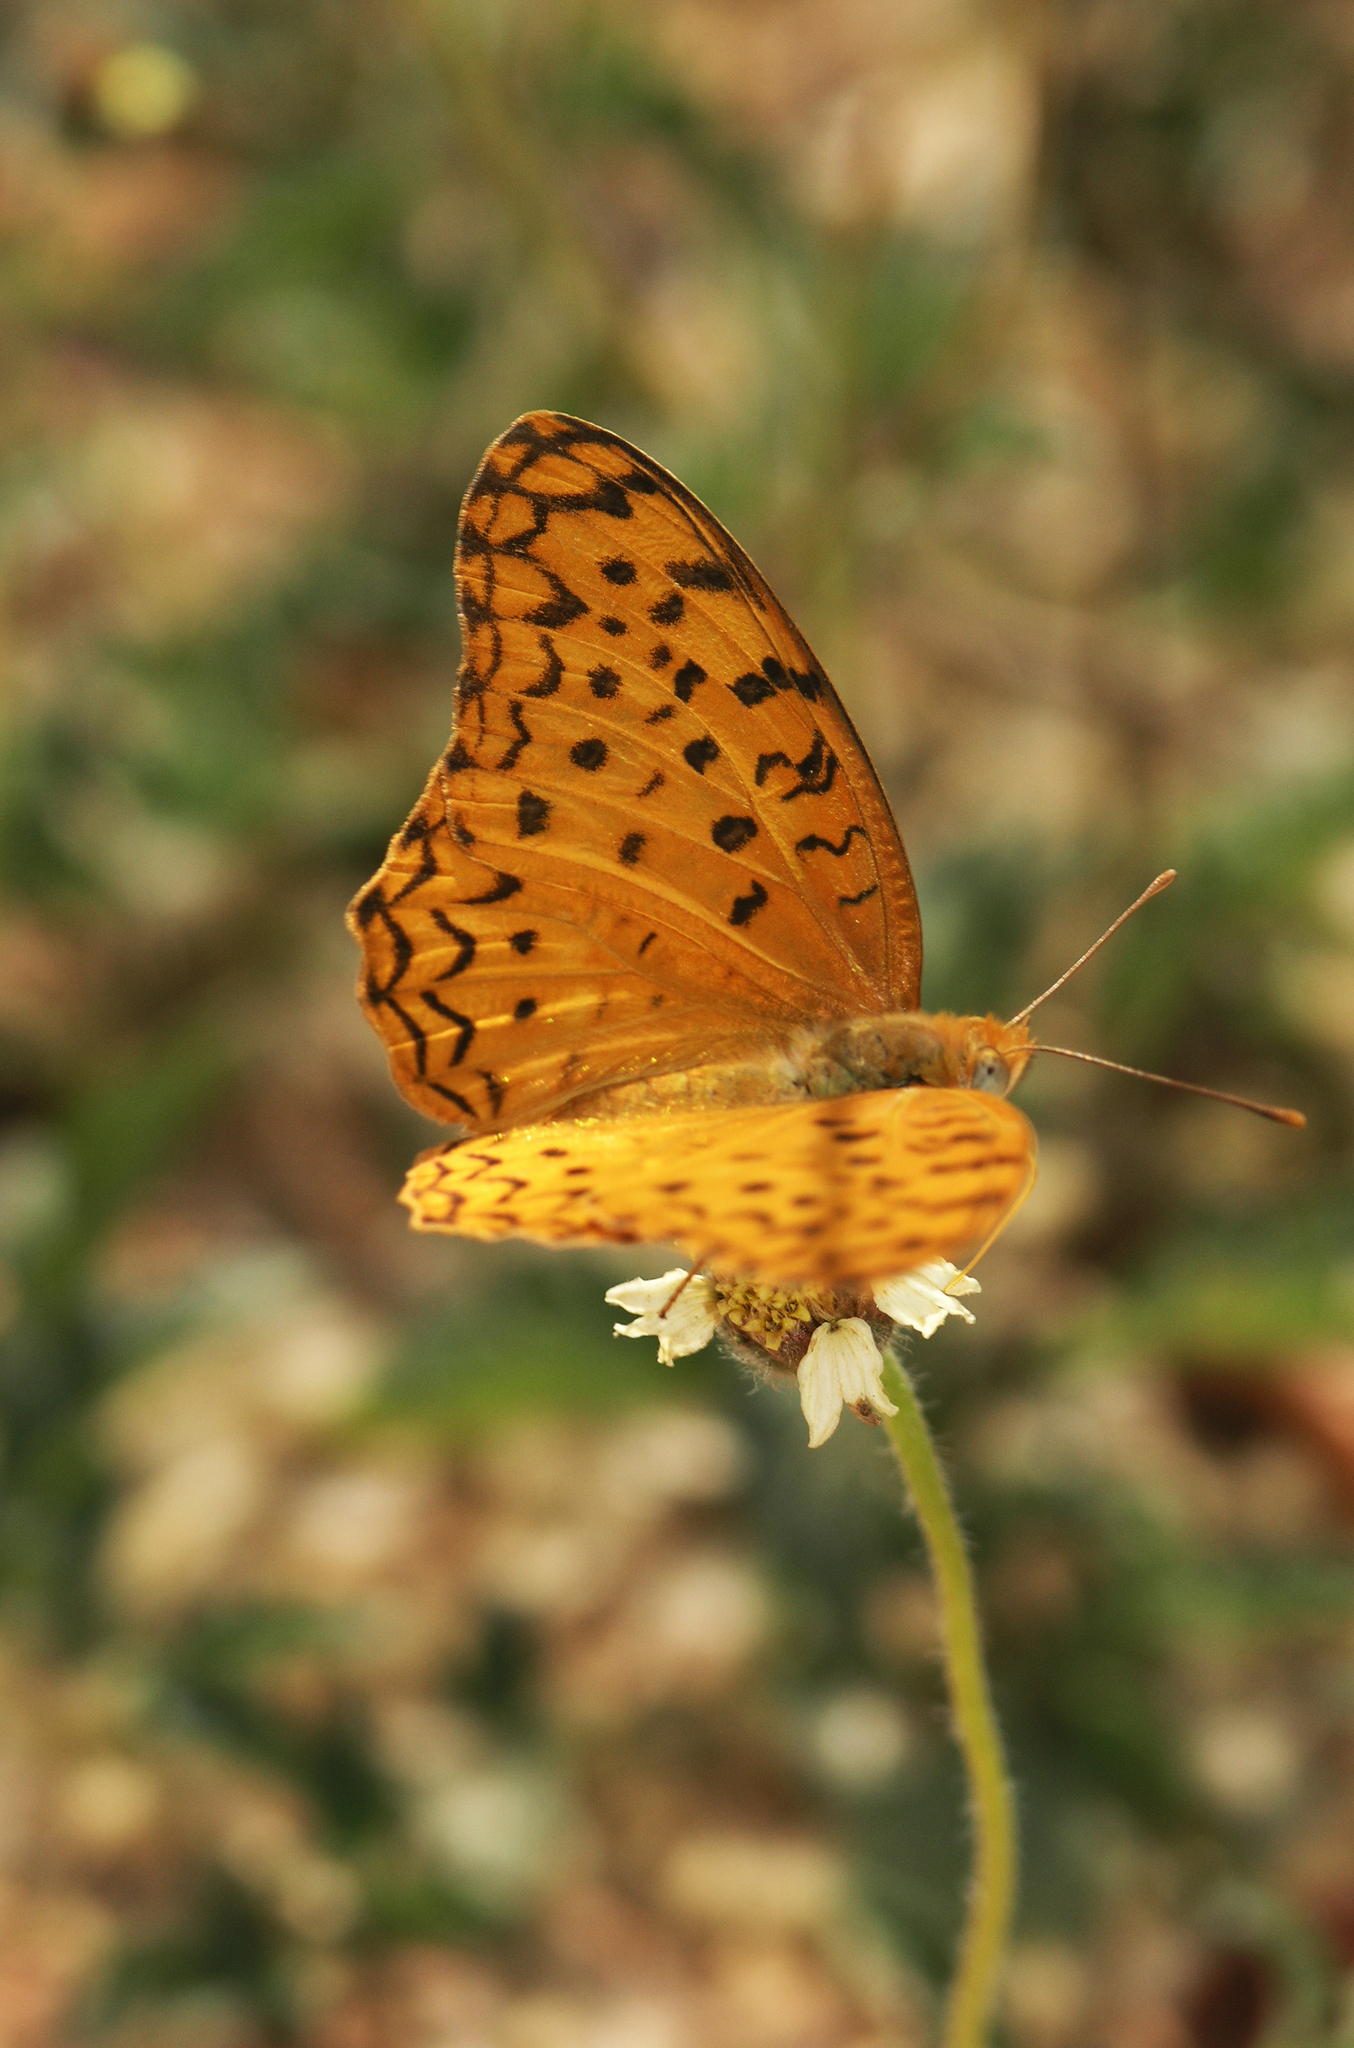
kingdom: Animalia
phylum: Arthropoda
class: Insecta
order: Lepidoptera
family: Nymphalidae
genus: Phalanta
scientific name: Phalanta phalantha
